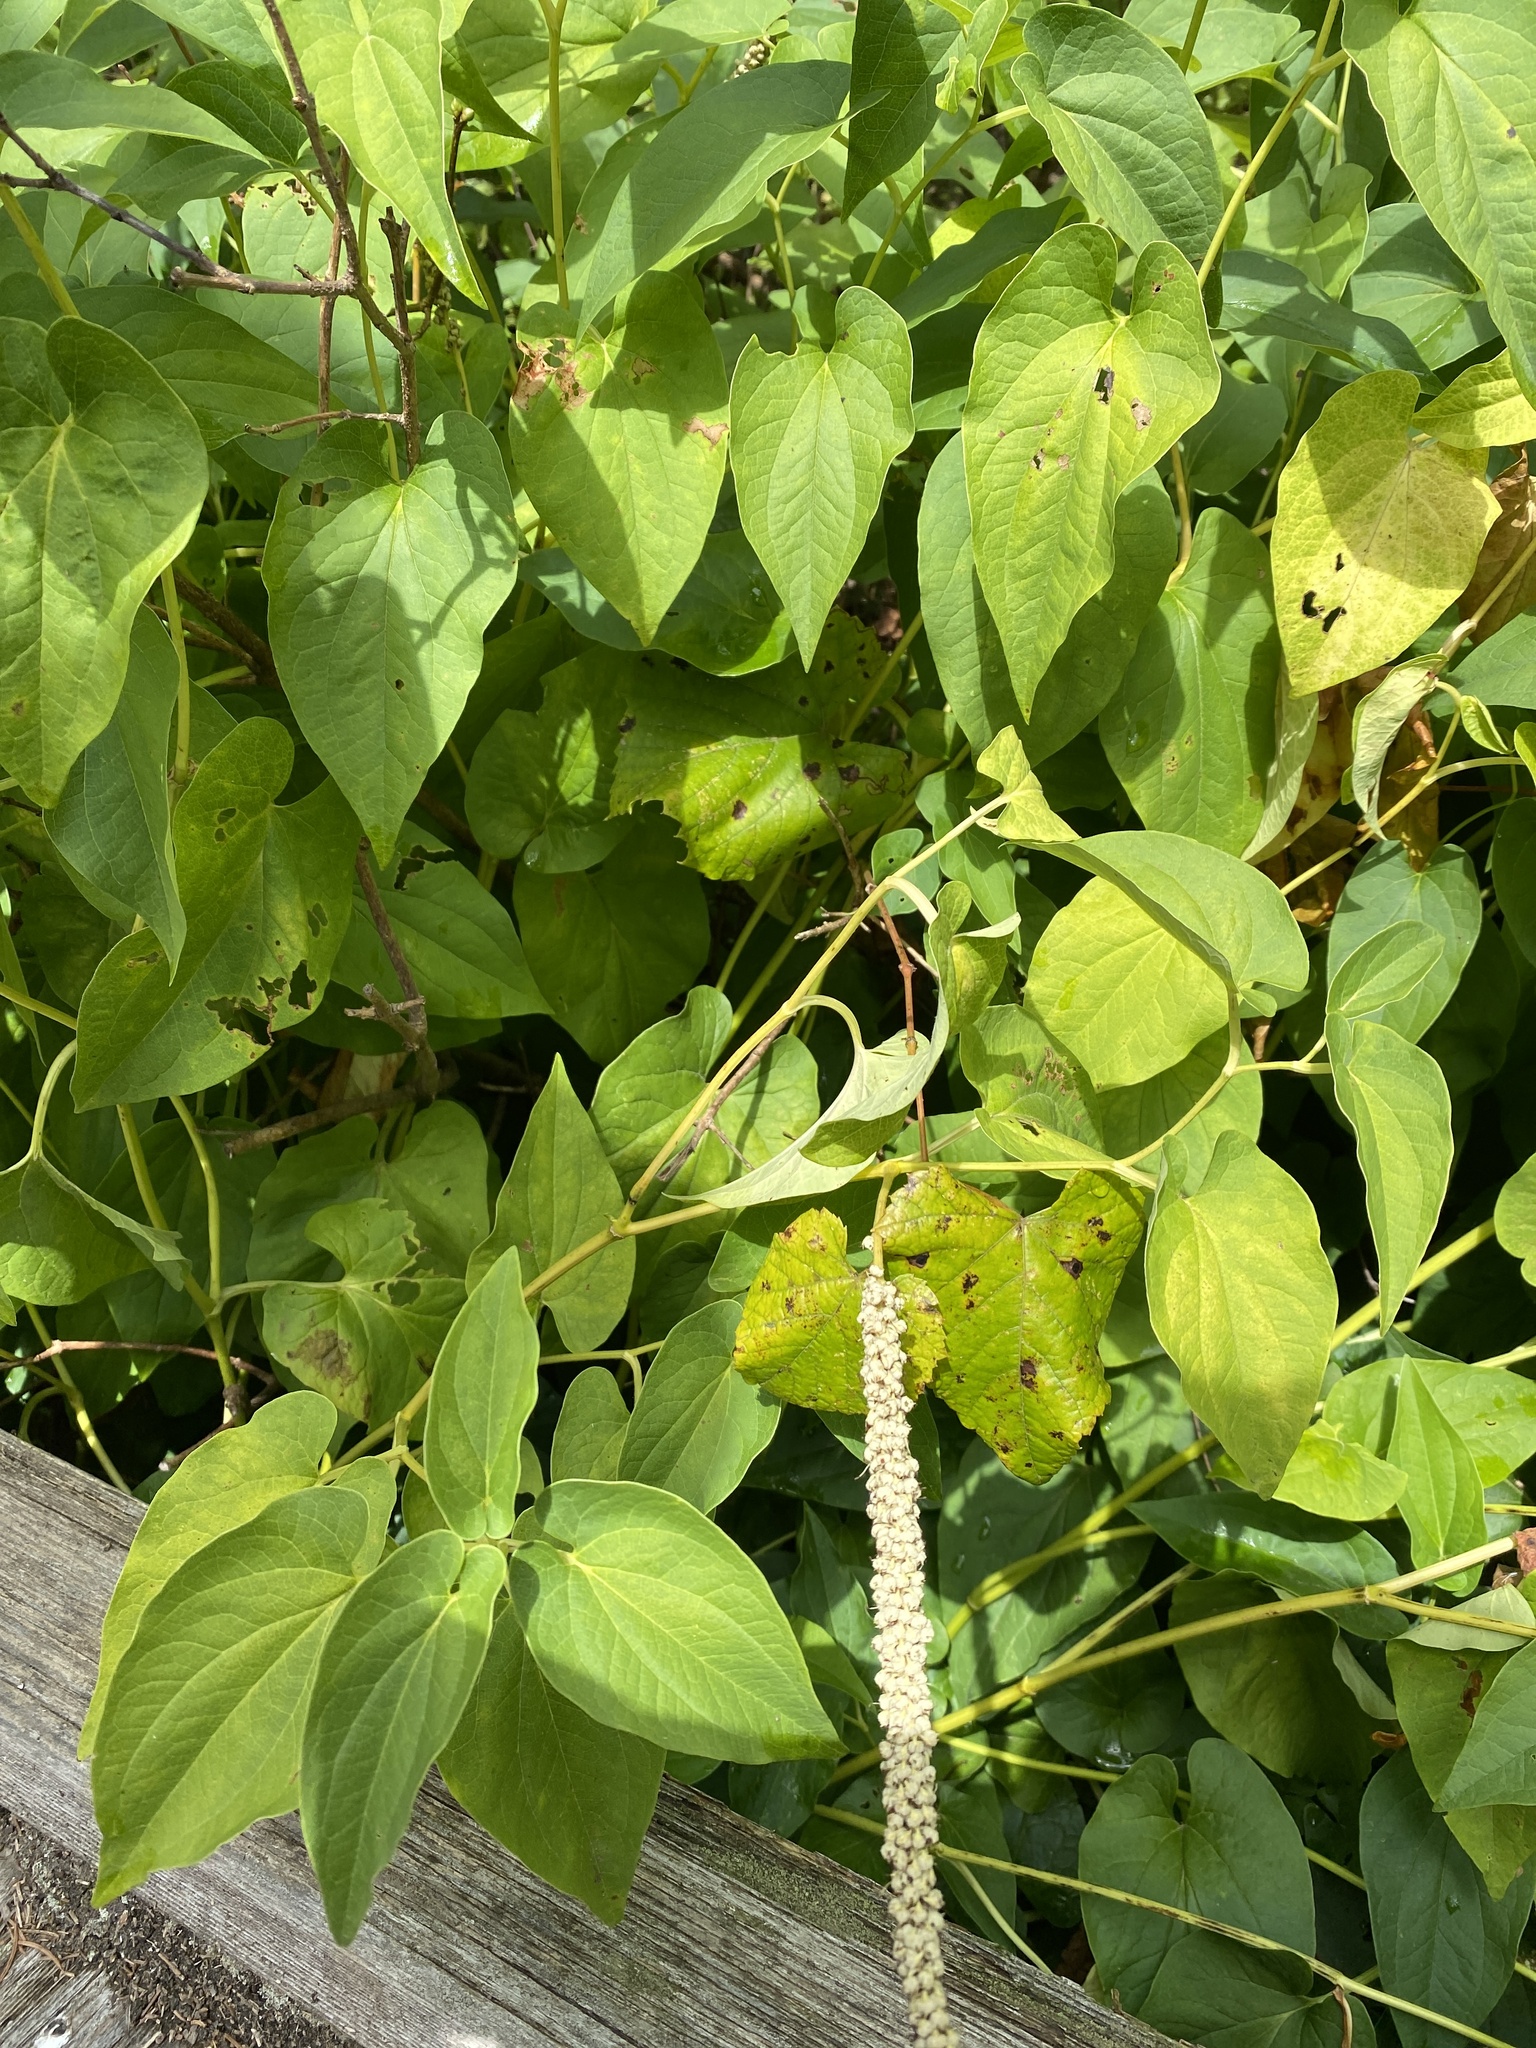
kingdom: Plantae
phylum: Tracheophyta
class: Magnoliopsida
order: Piperales
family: Saururaceae
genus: Saururus
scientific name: Saururus cernuus
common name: Lizard's-tail
